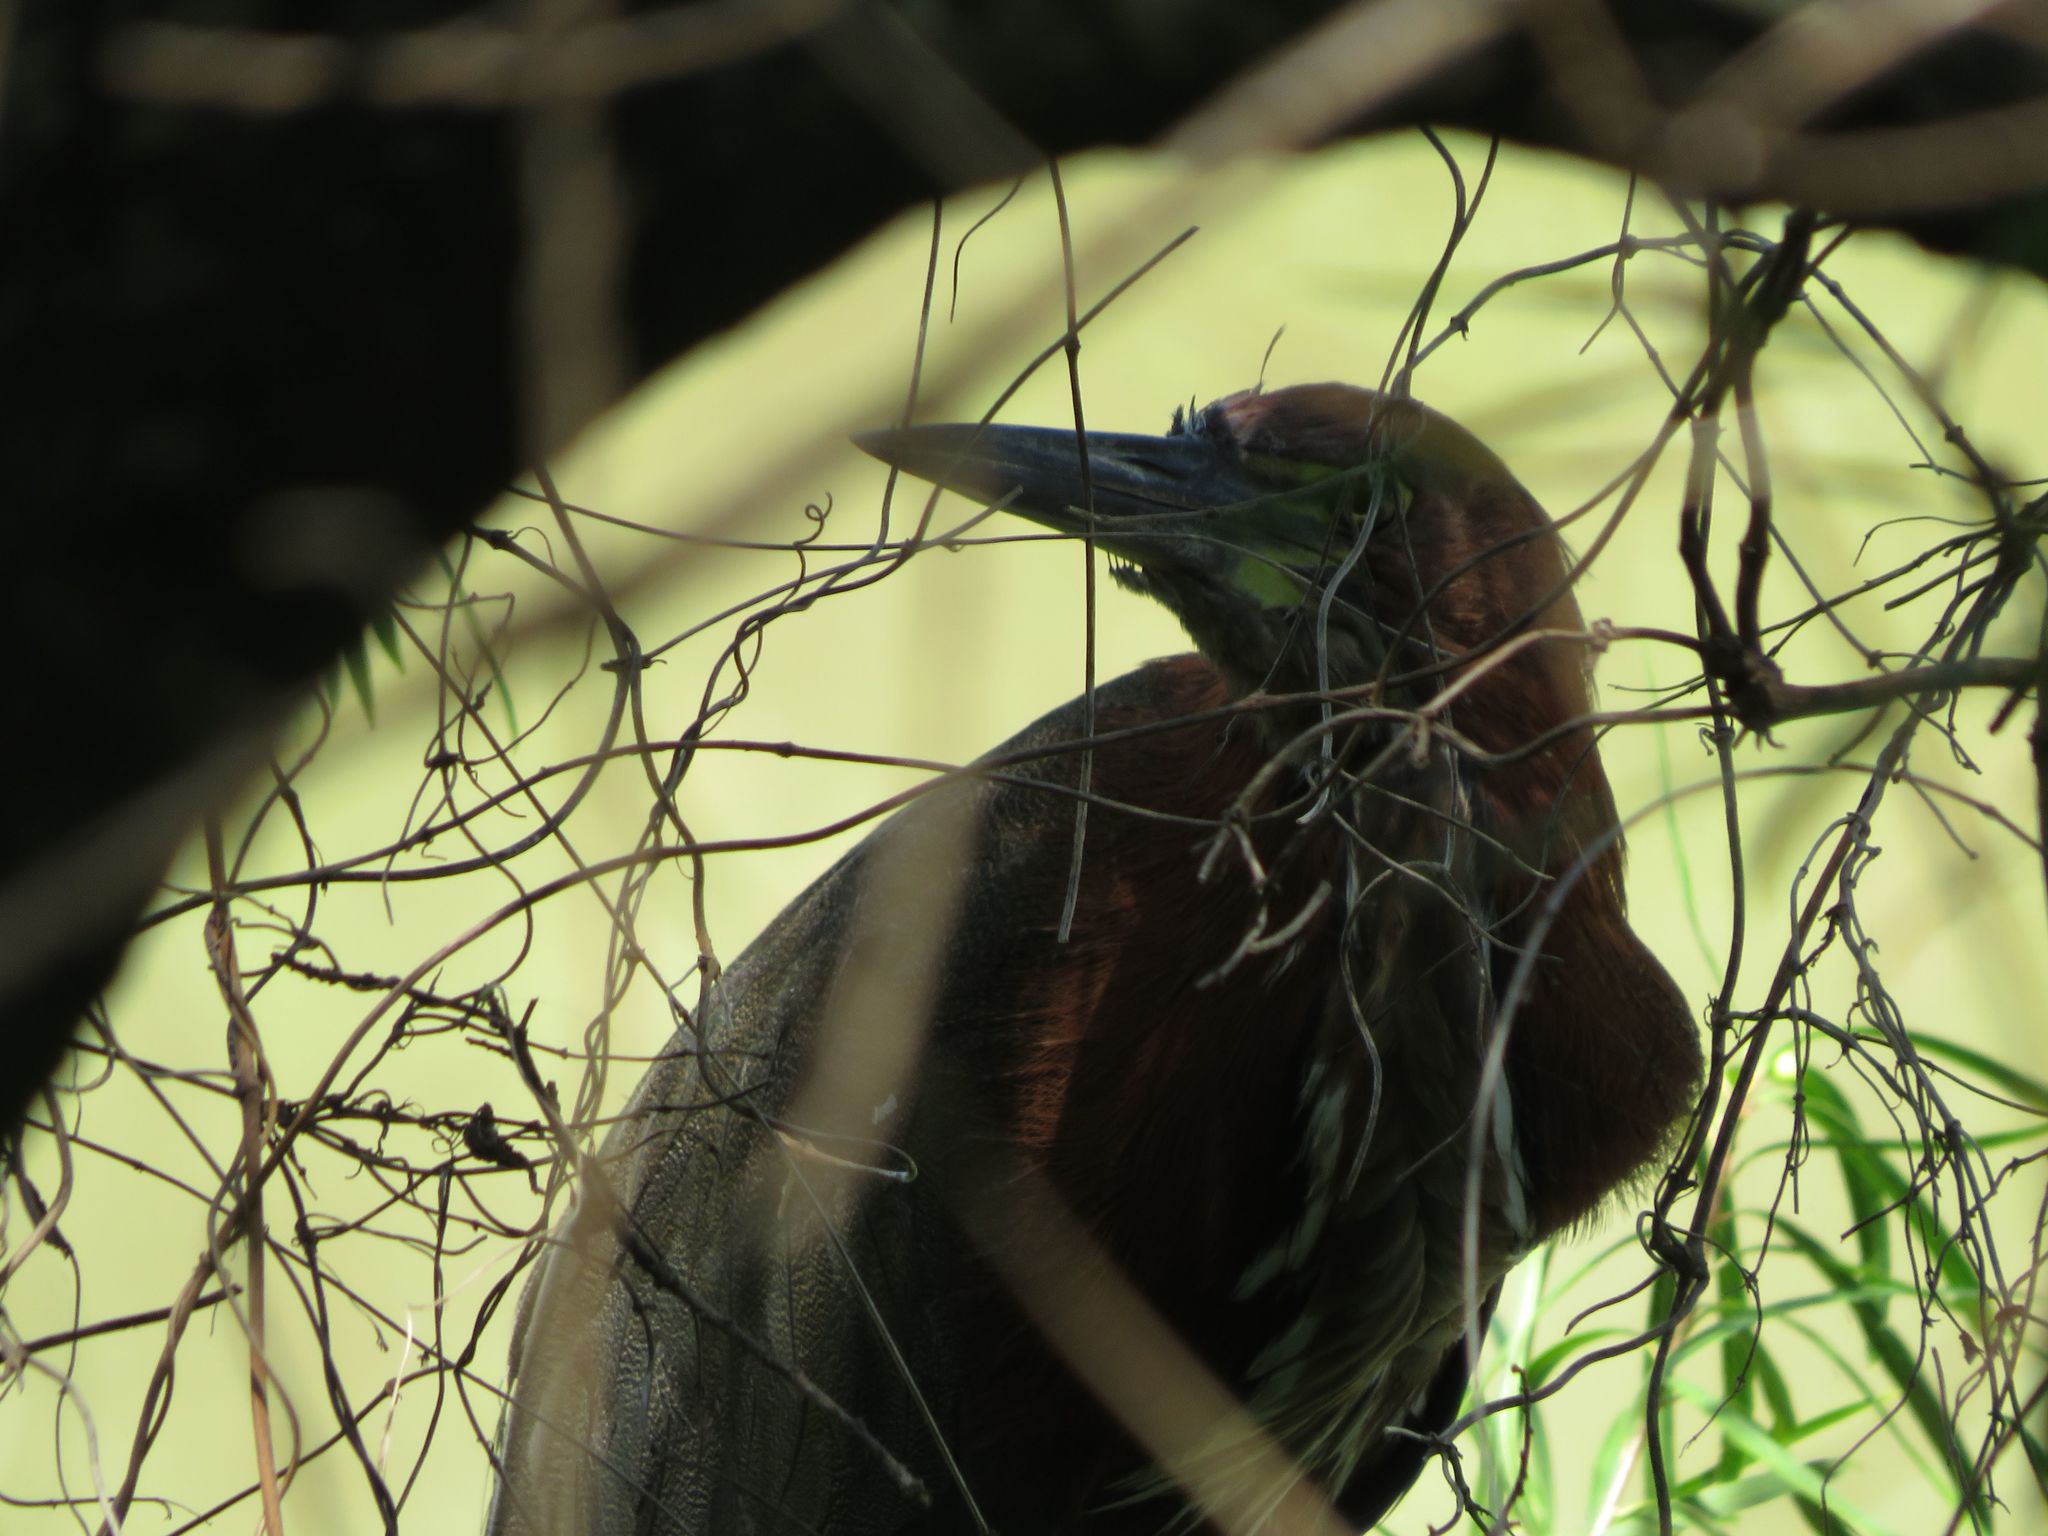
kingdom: Animalia
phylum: Chordata
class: Aves
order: Pelecaniformes
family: Ardeidae
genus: Tigrisoma
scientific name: Tigrisoma lineatum
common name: Rufescent tiger-heron
